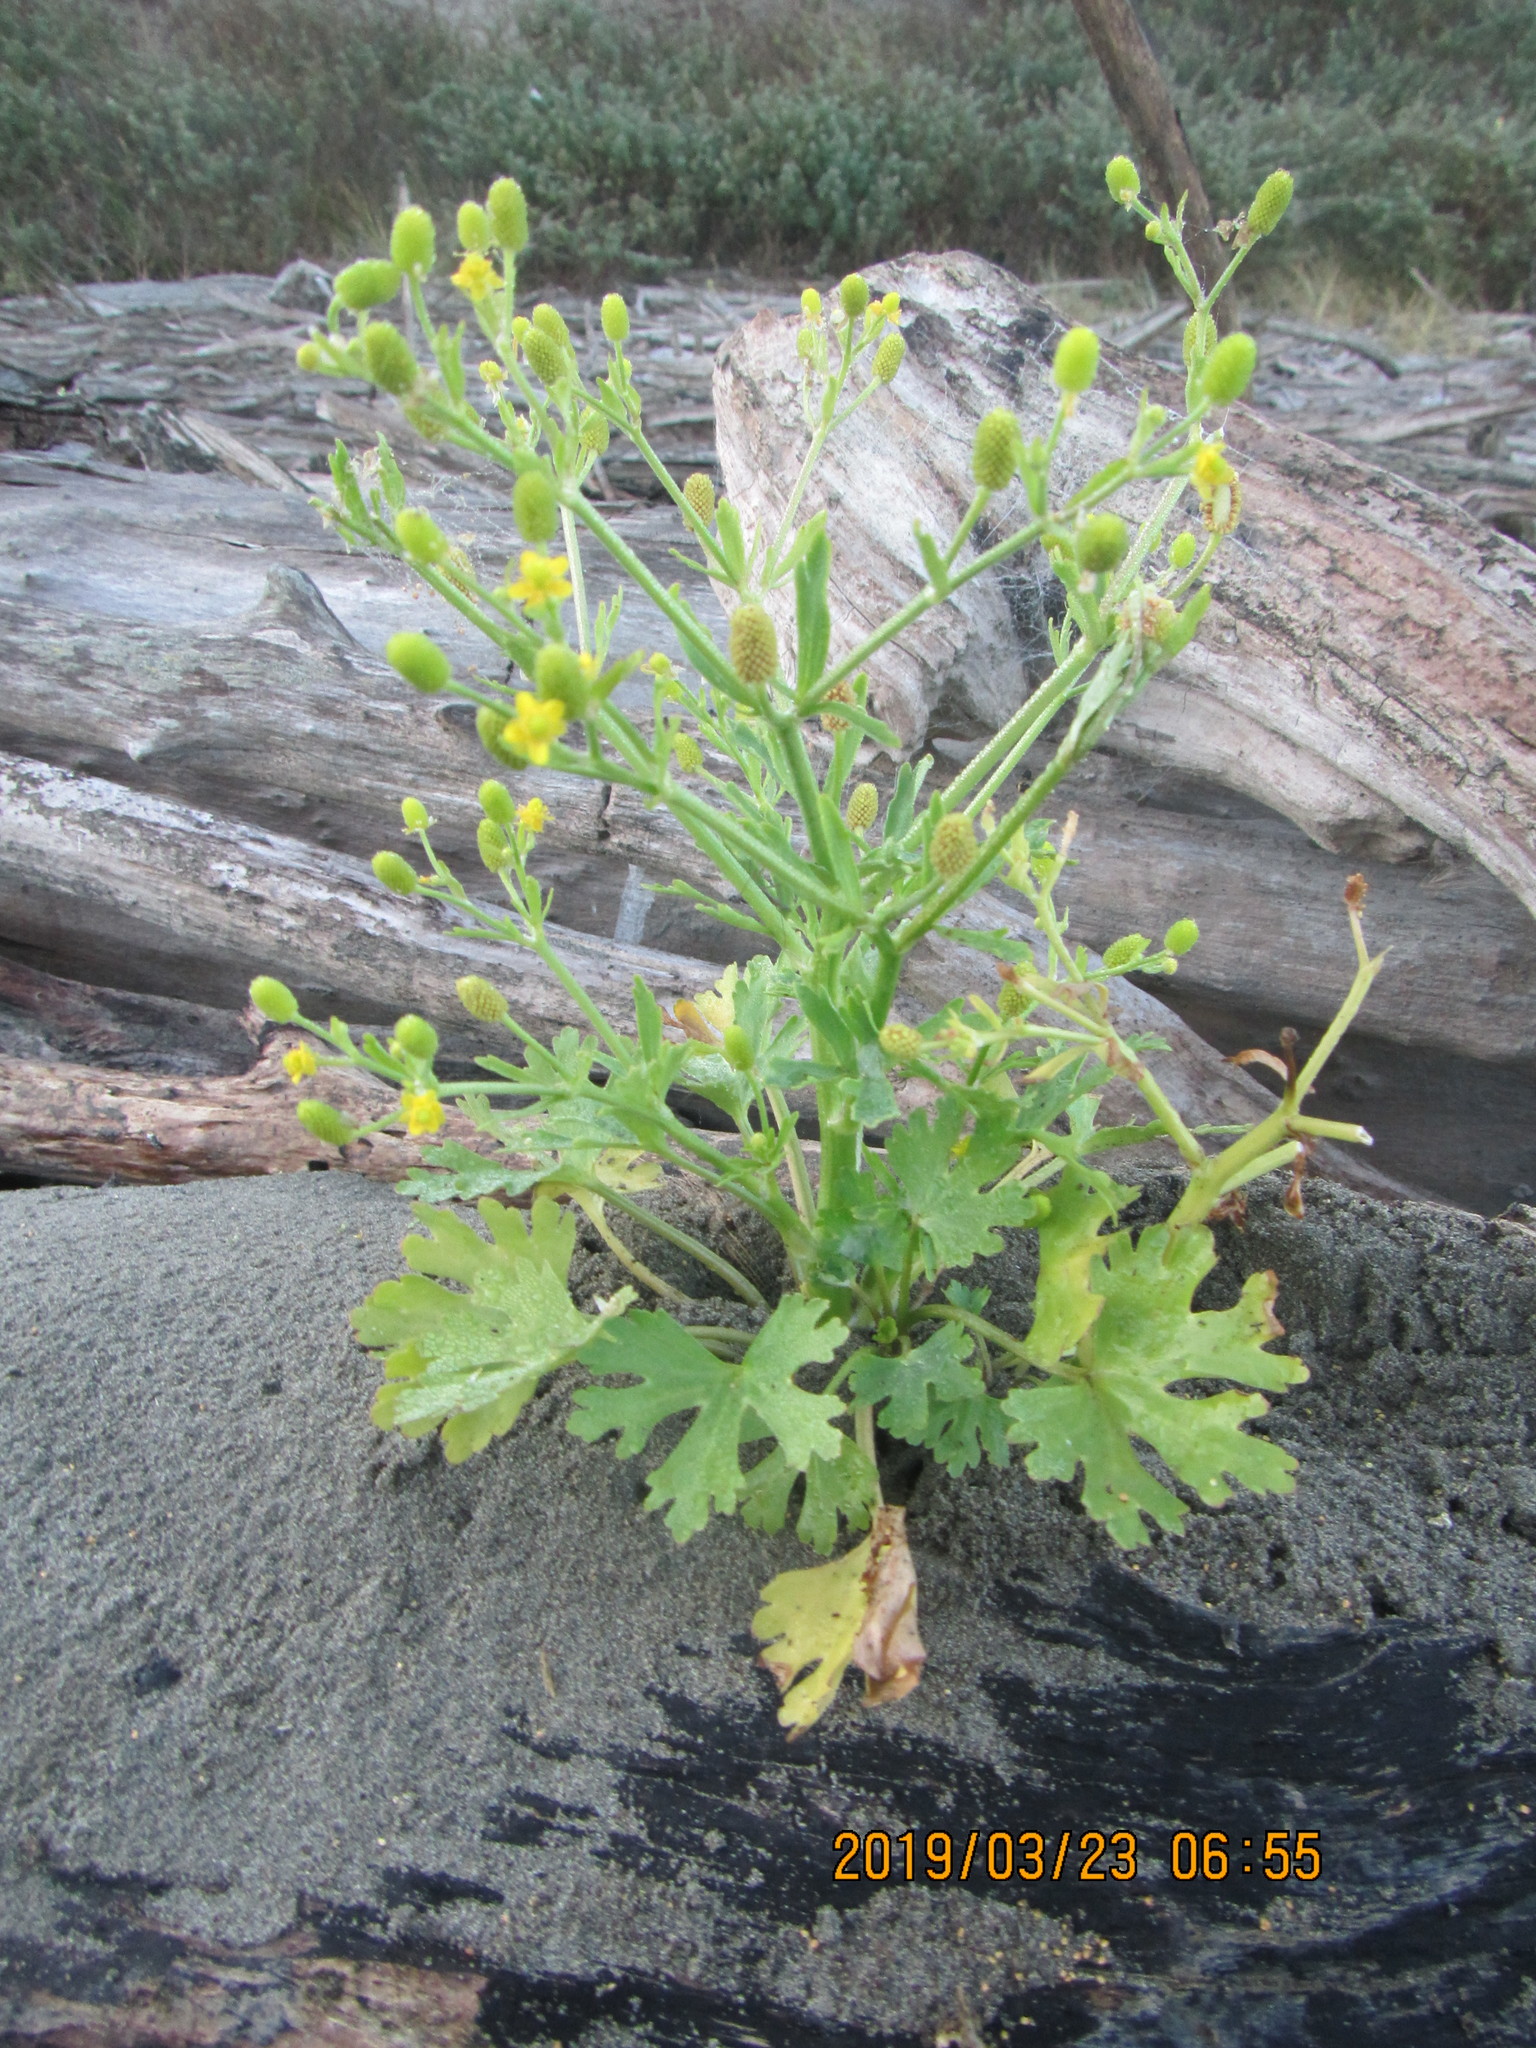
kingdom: Plantae
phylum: Tracheophyta
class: Magnoliopsida
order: Ranunculales
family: Ranunculaceae
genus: Ranunculus
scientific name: Ranunculus sceleratus
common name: Celery-leaved buttercup
